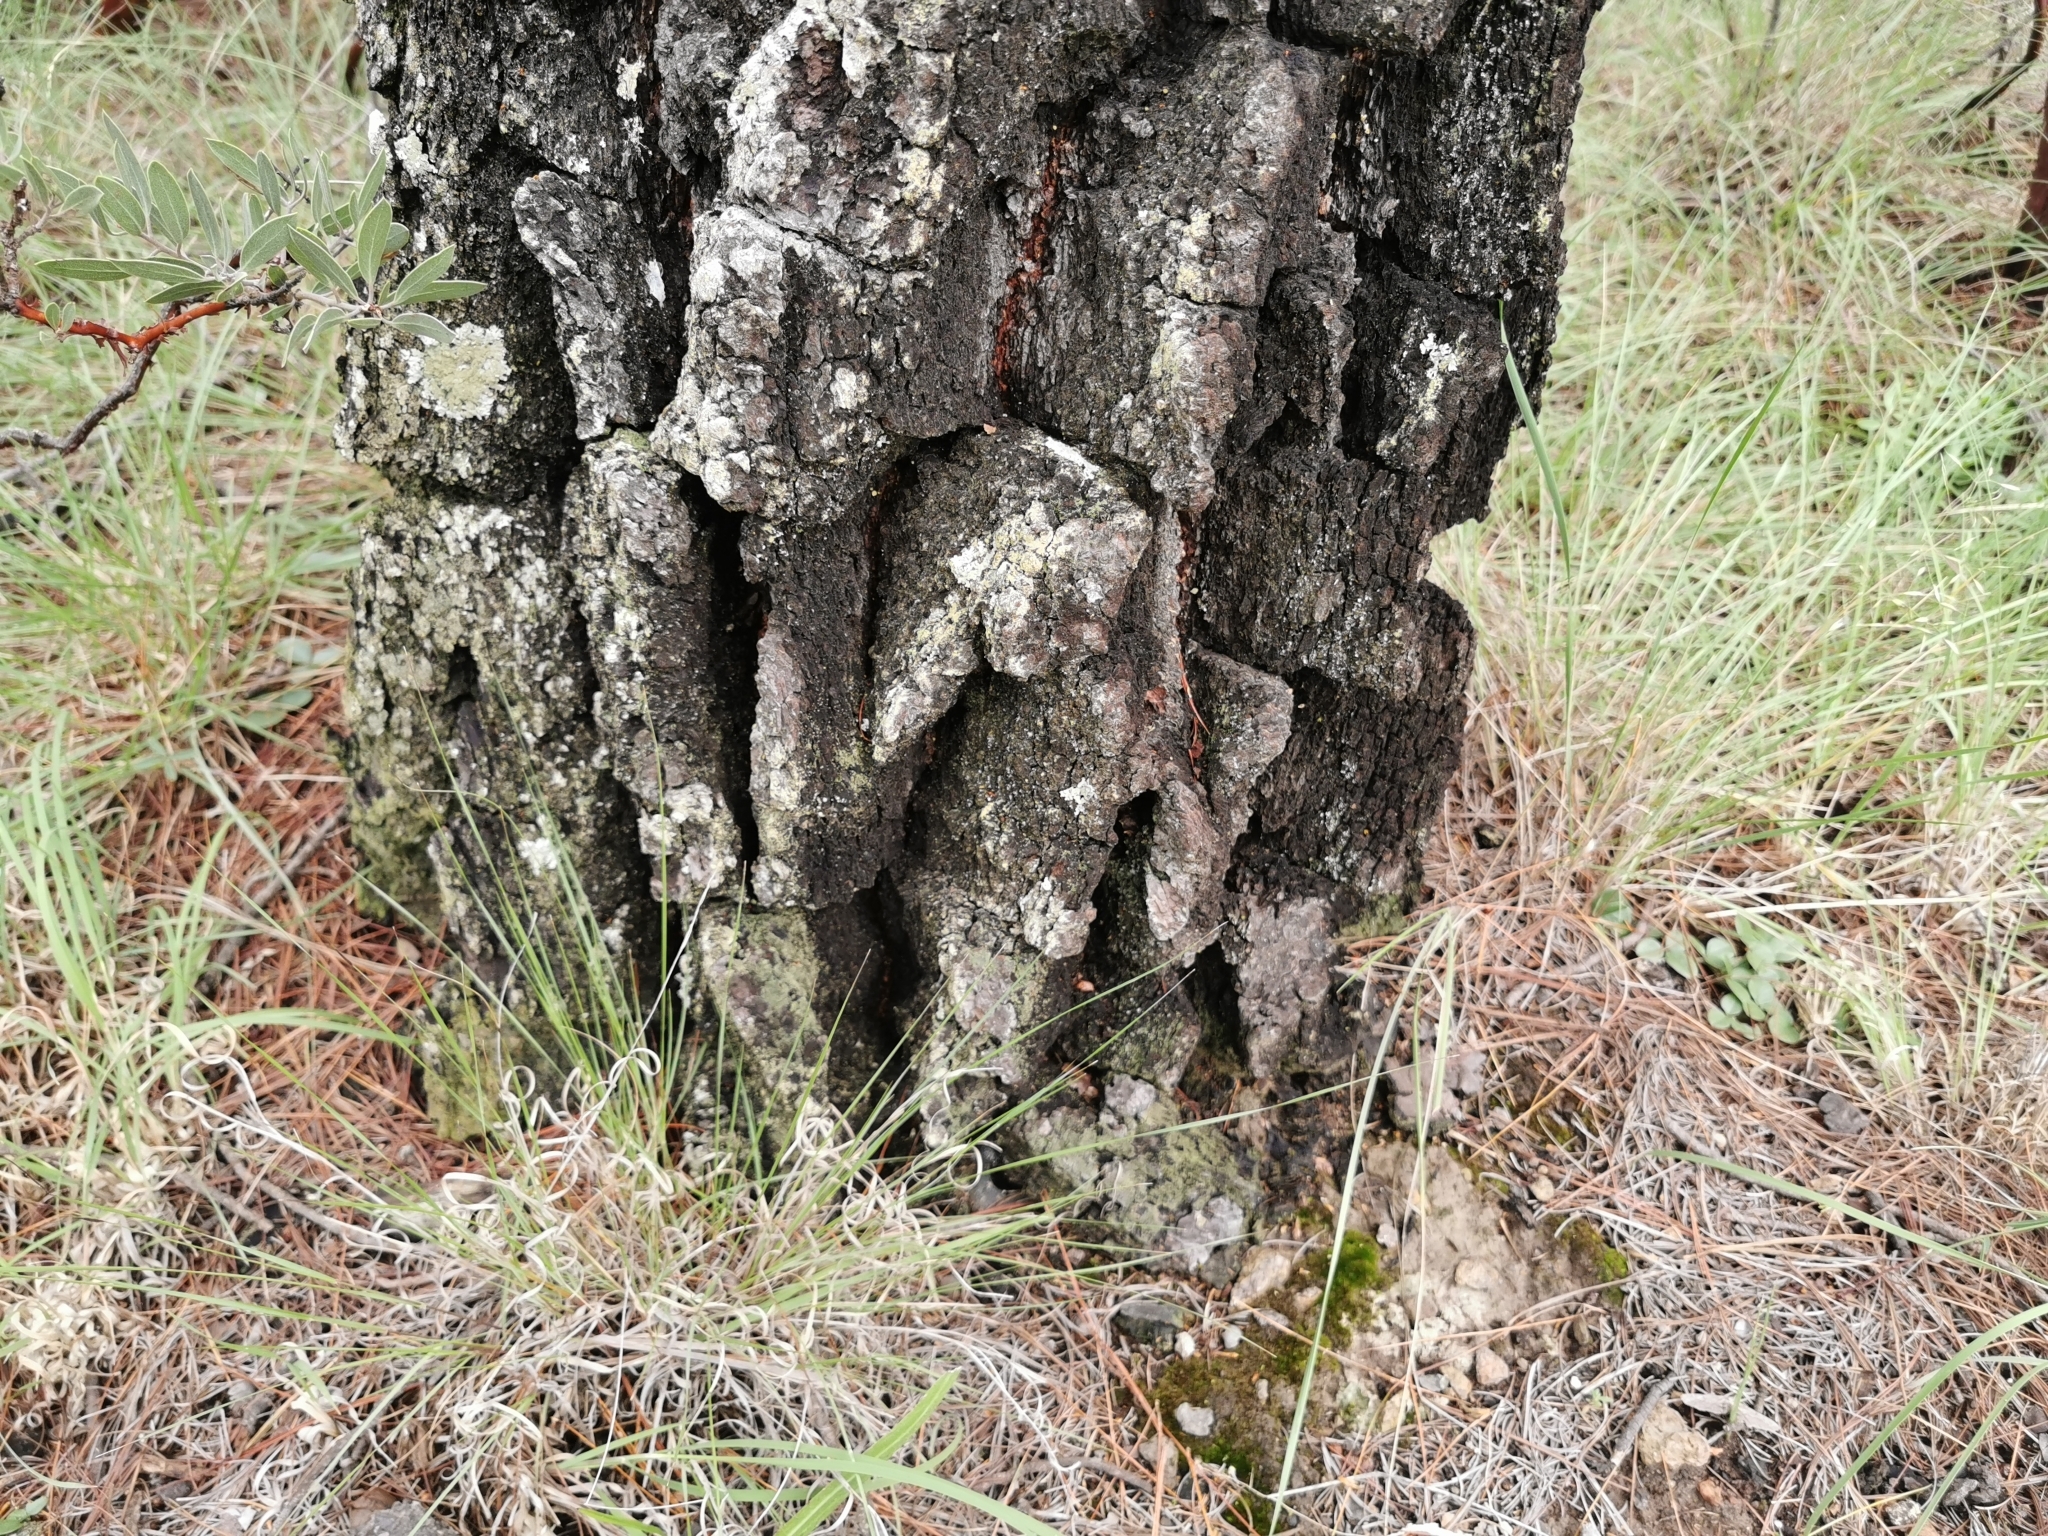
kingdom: Plantae
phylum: Tracheophyta
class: Pinopsida
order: Pinales
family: Pinaceae
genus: Pinus
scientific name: Pinus leiophylla
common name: Chihuahua pine
